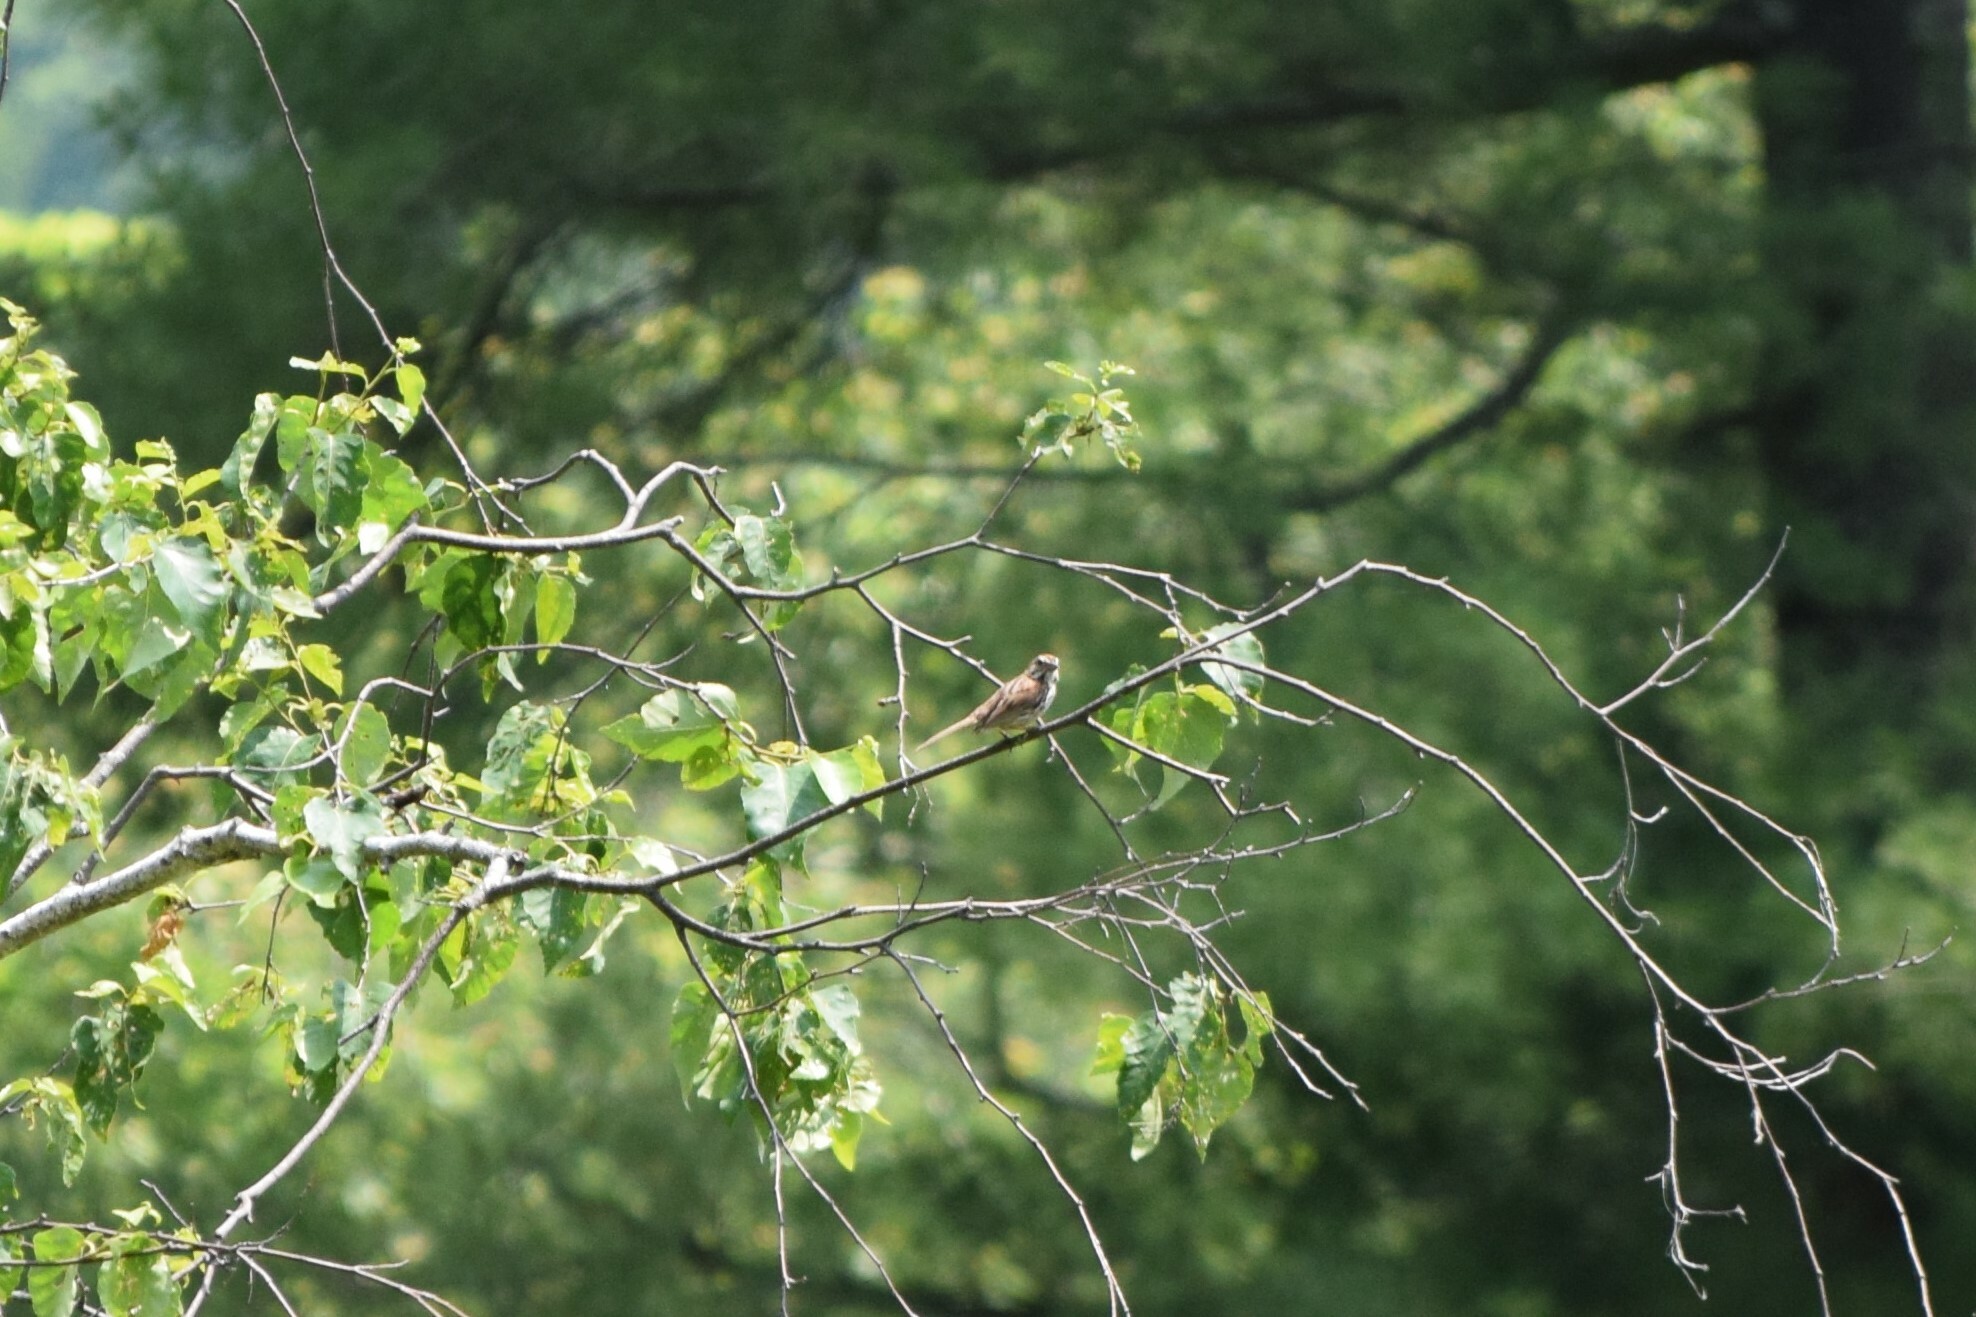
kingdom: Animalia
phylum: Chordata
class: Aves
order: Passeriformes
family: Passerellidae
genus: Melospiza
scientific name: Melospiza melodia
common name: Song sparrow
